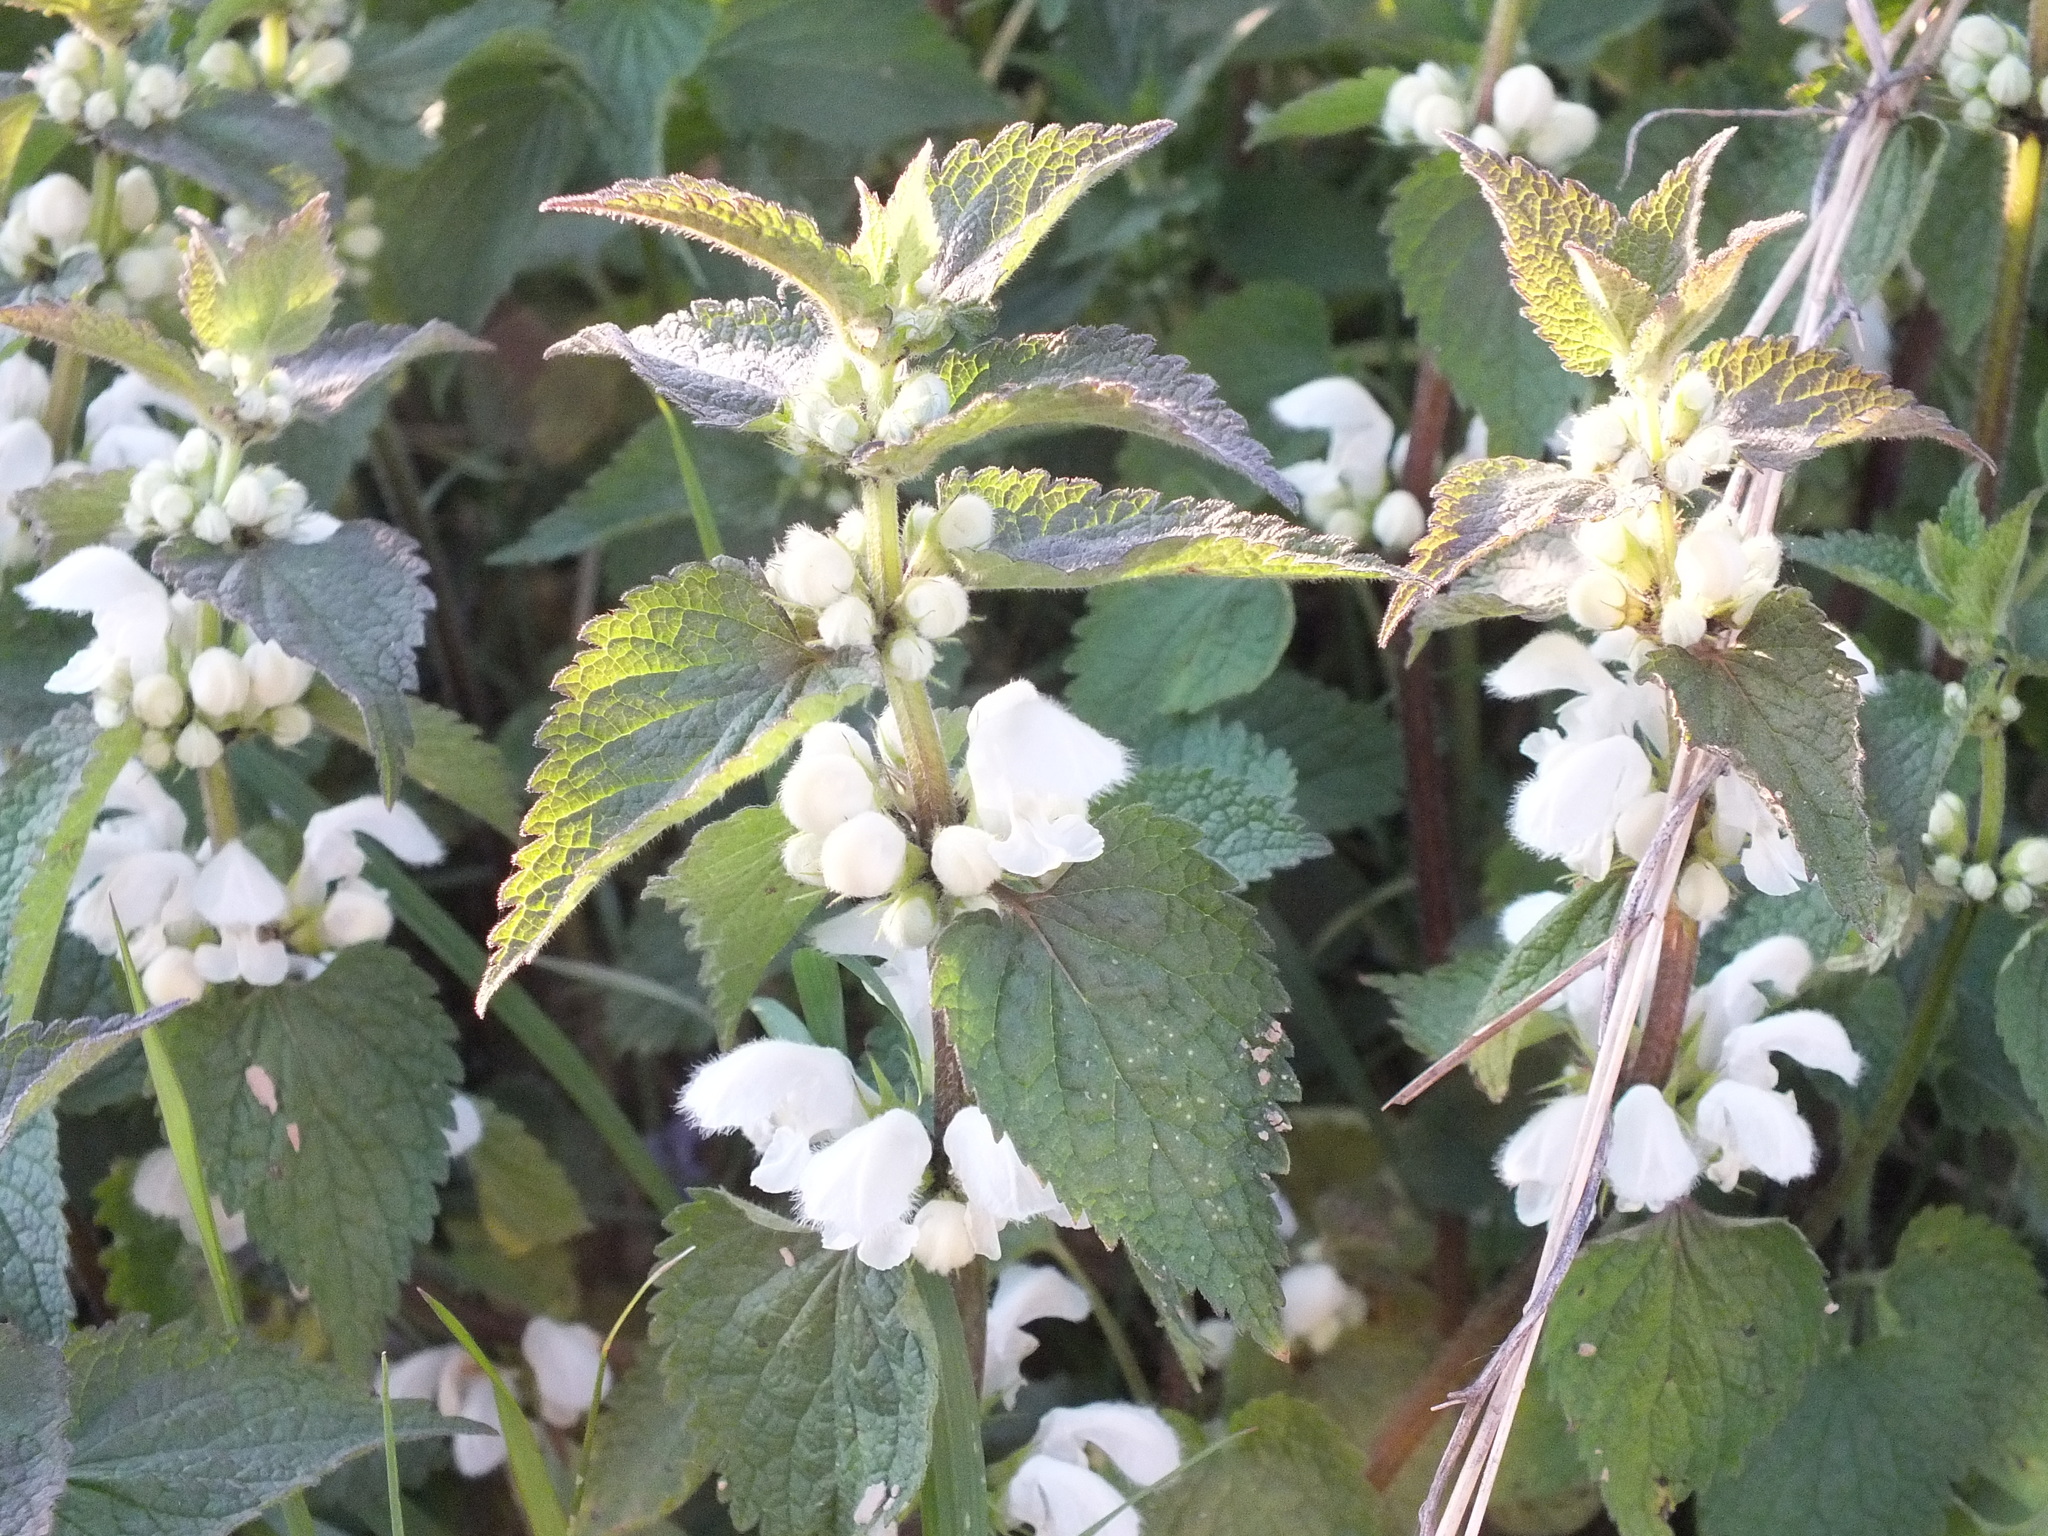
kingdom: Plantae
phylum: Tracheophyta
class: Magnoliopsida
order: Lamiales
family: Lamiaceae
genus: Lamium
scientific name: Lamium album
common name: White dead-nettle
